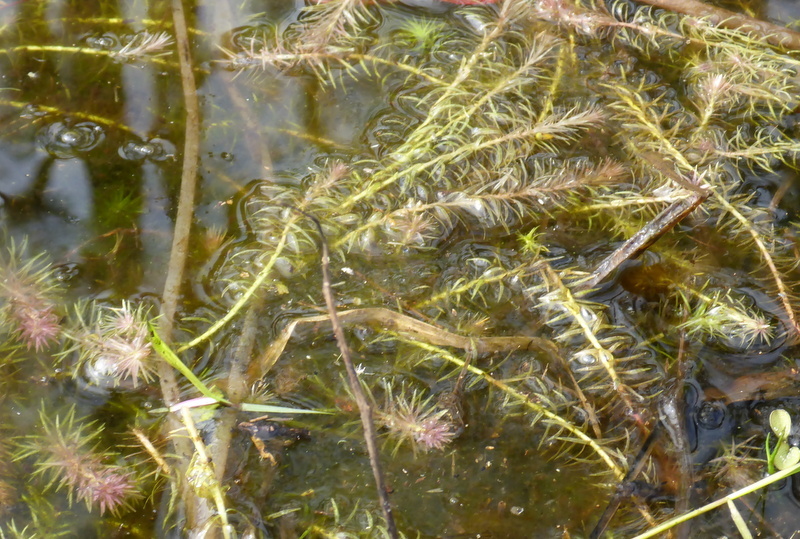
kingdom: Plantae
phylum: Tracheophyta
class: Liliopsida
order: Poales
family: Mayacaceae
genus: Mayaca
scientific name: Mayaca fluviatilis
